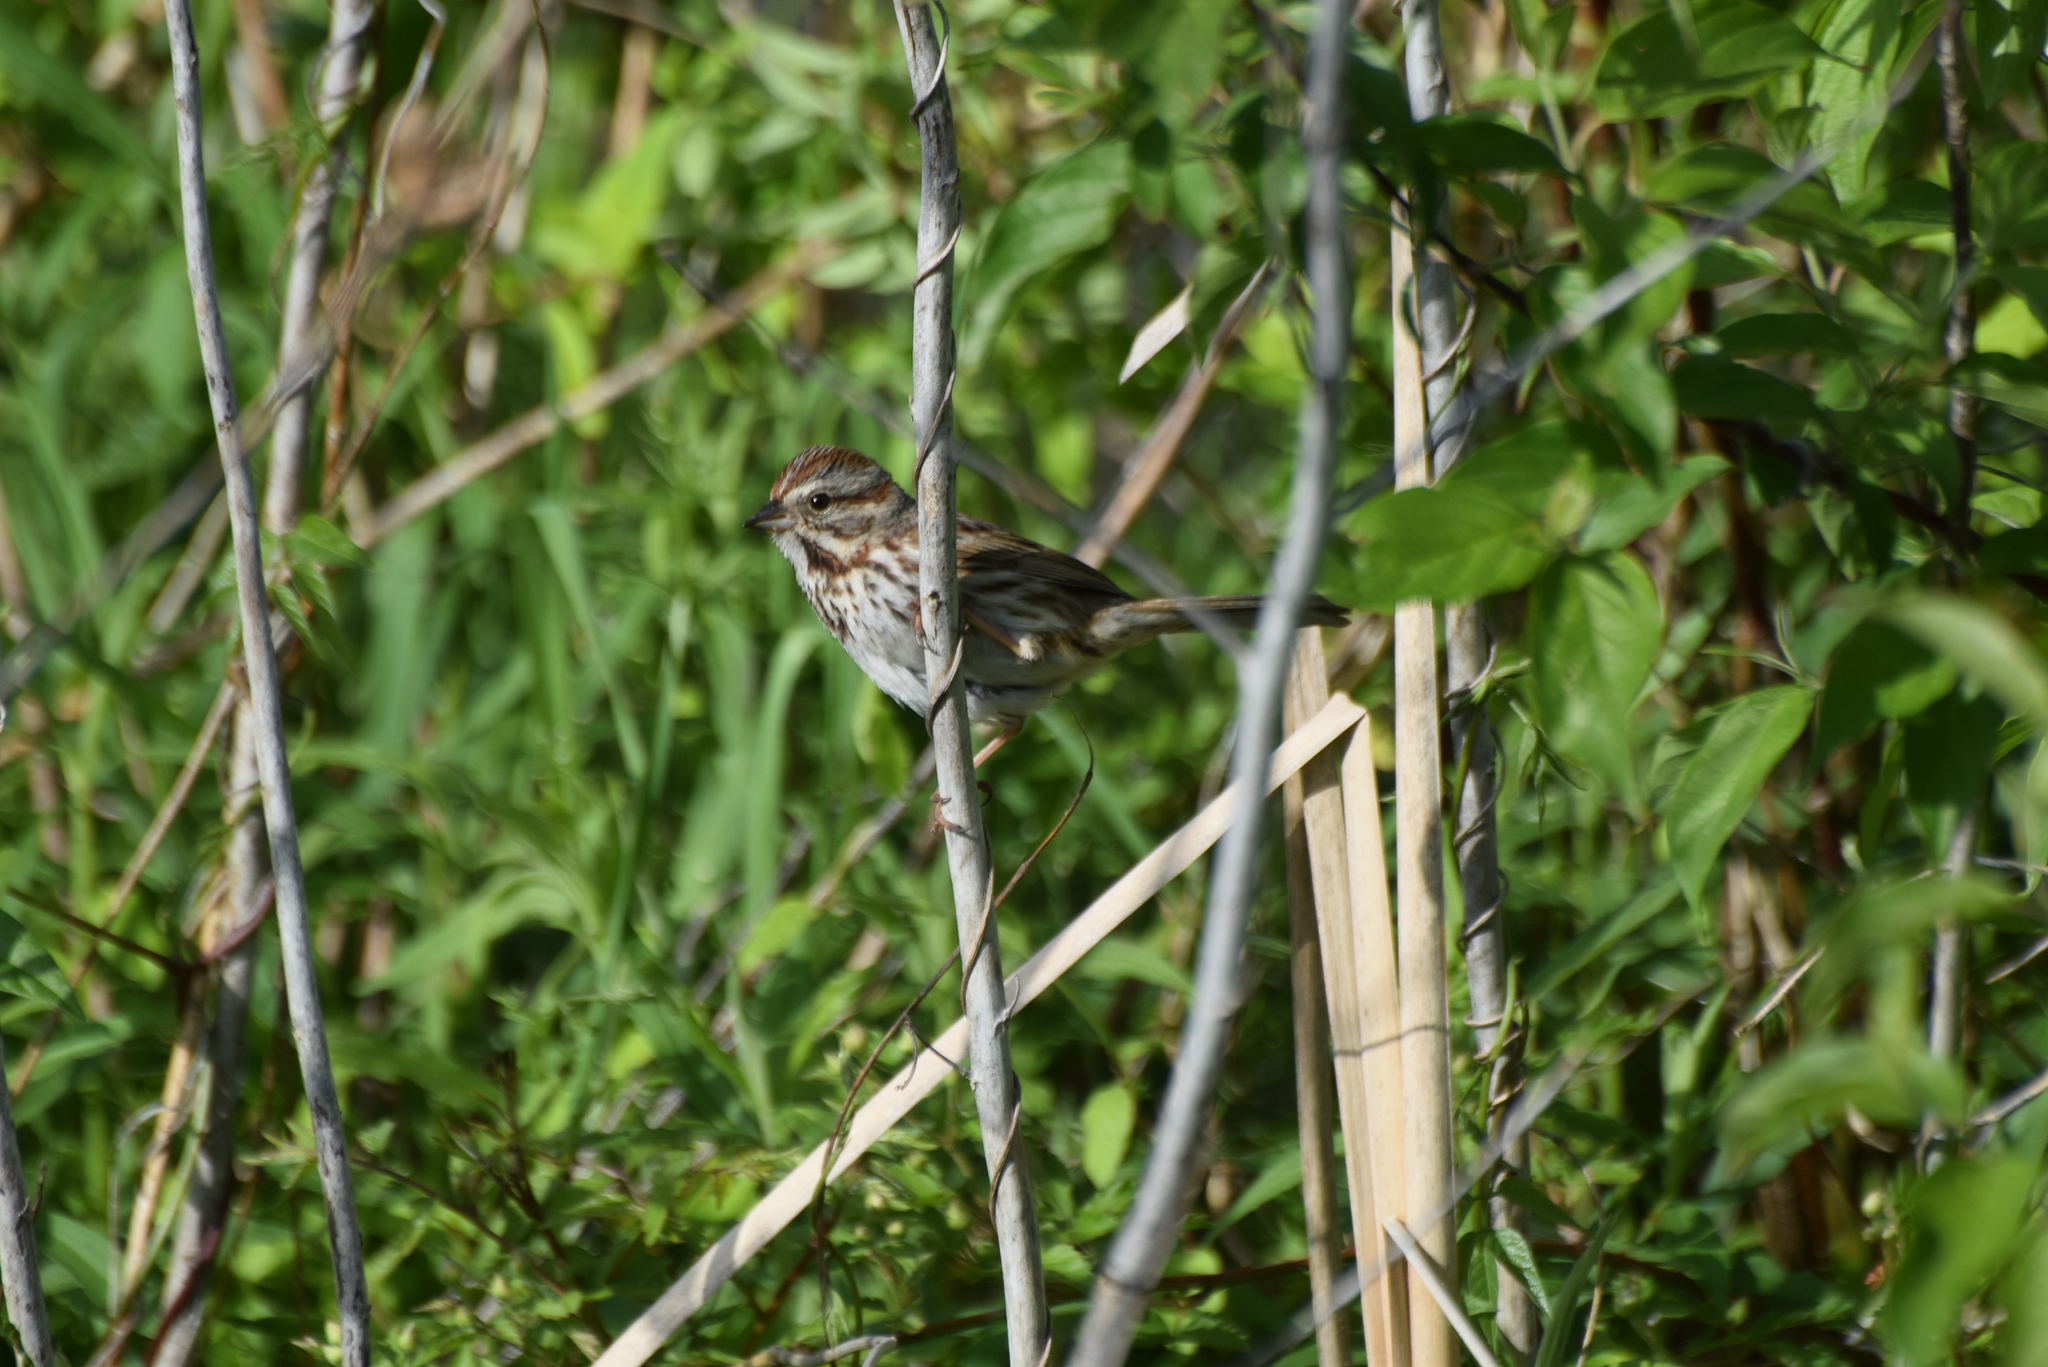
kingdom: Animalia
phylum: Chordata
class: Aves
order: Passeriformes
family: Passerellidae
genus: Melospiza
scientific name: Melospiza melodia
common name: Song sparrow
